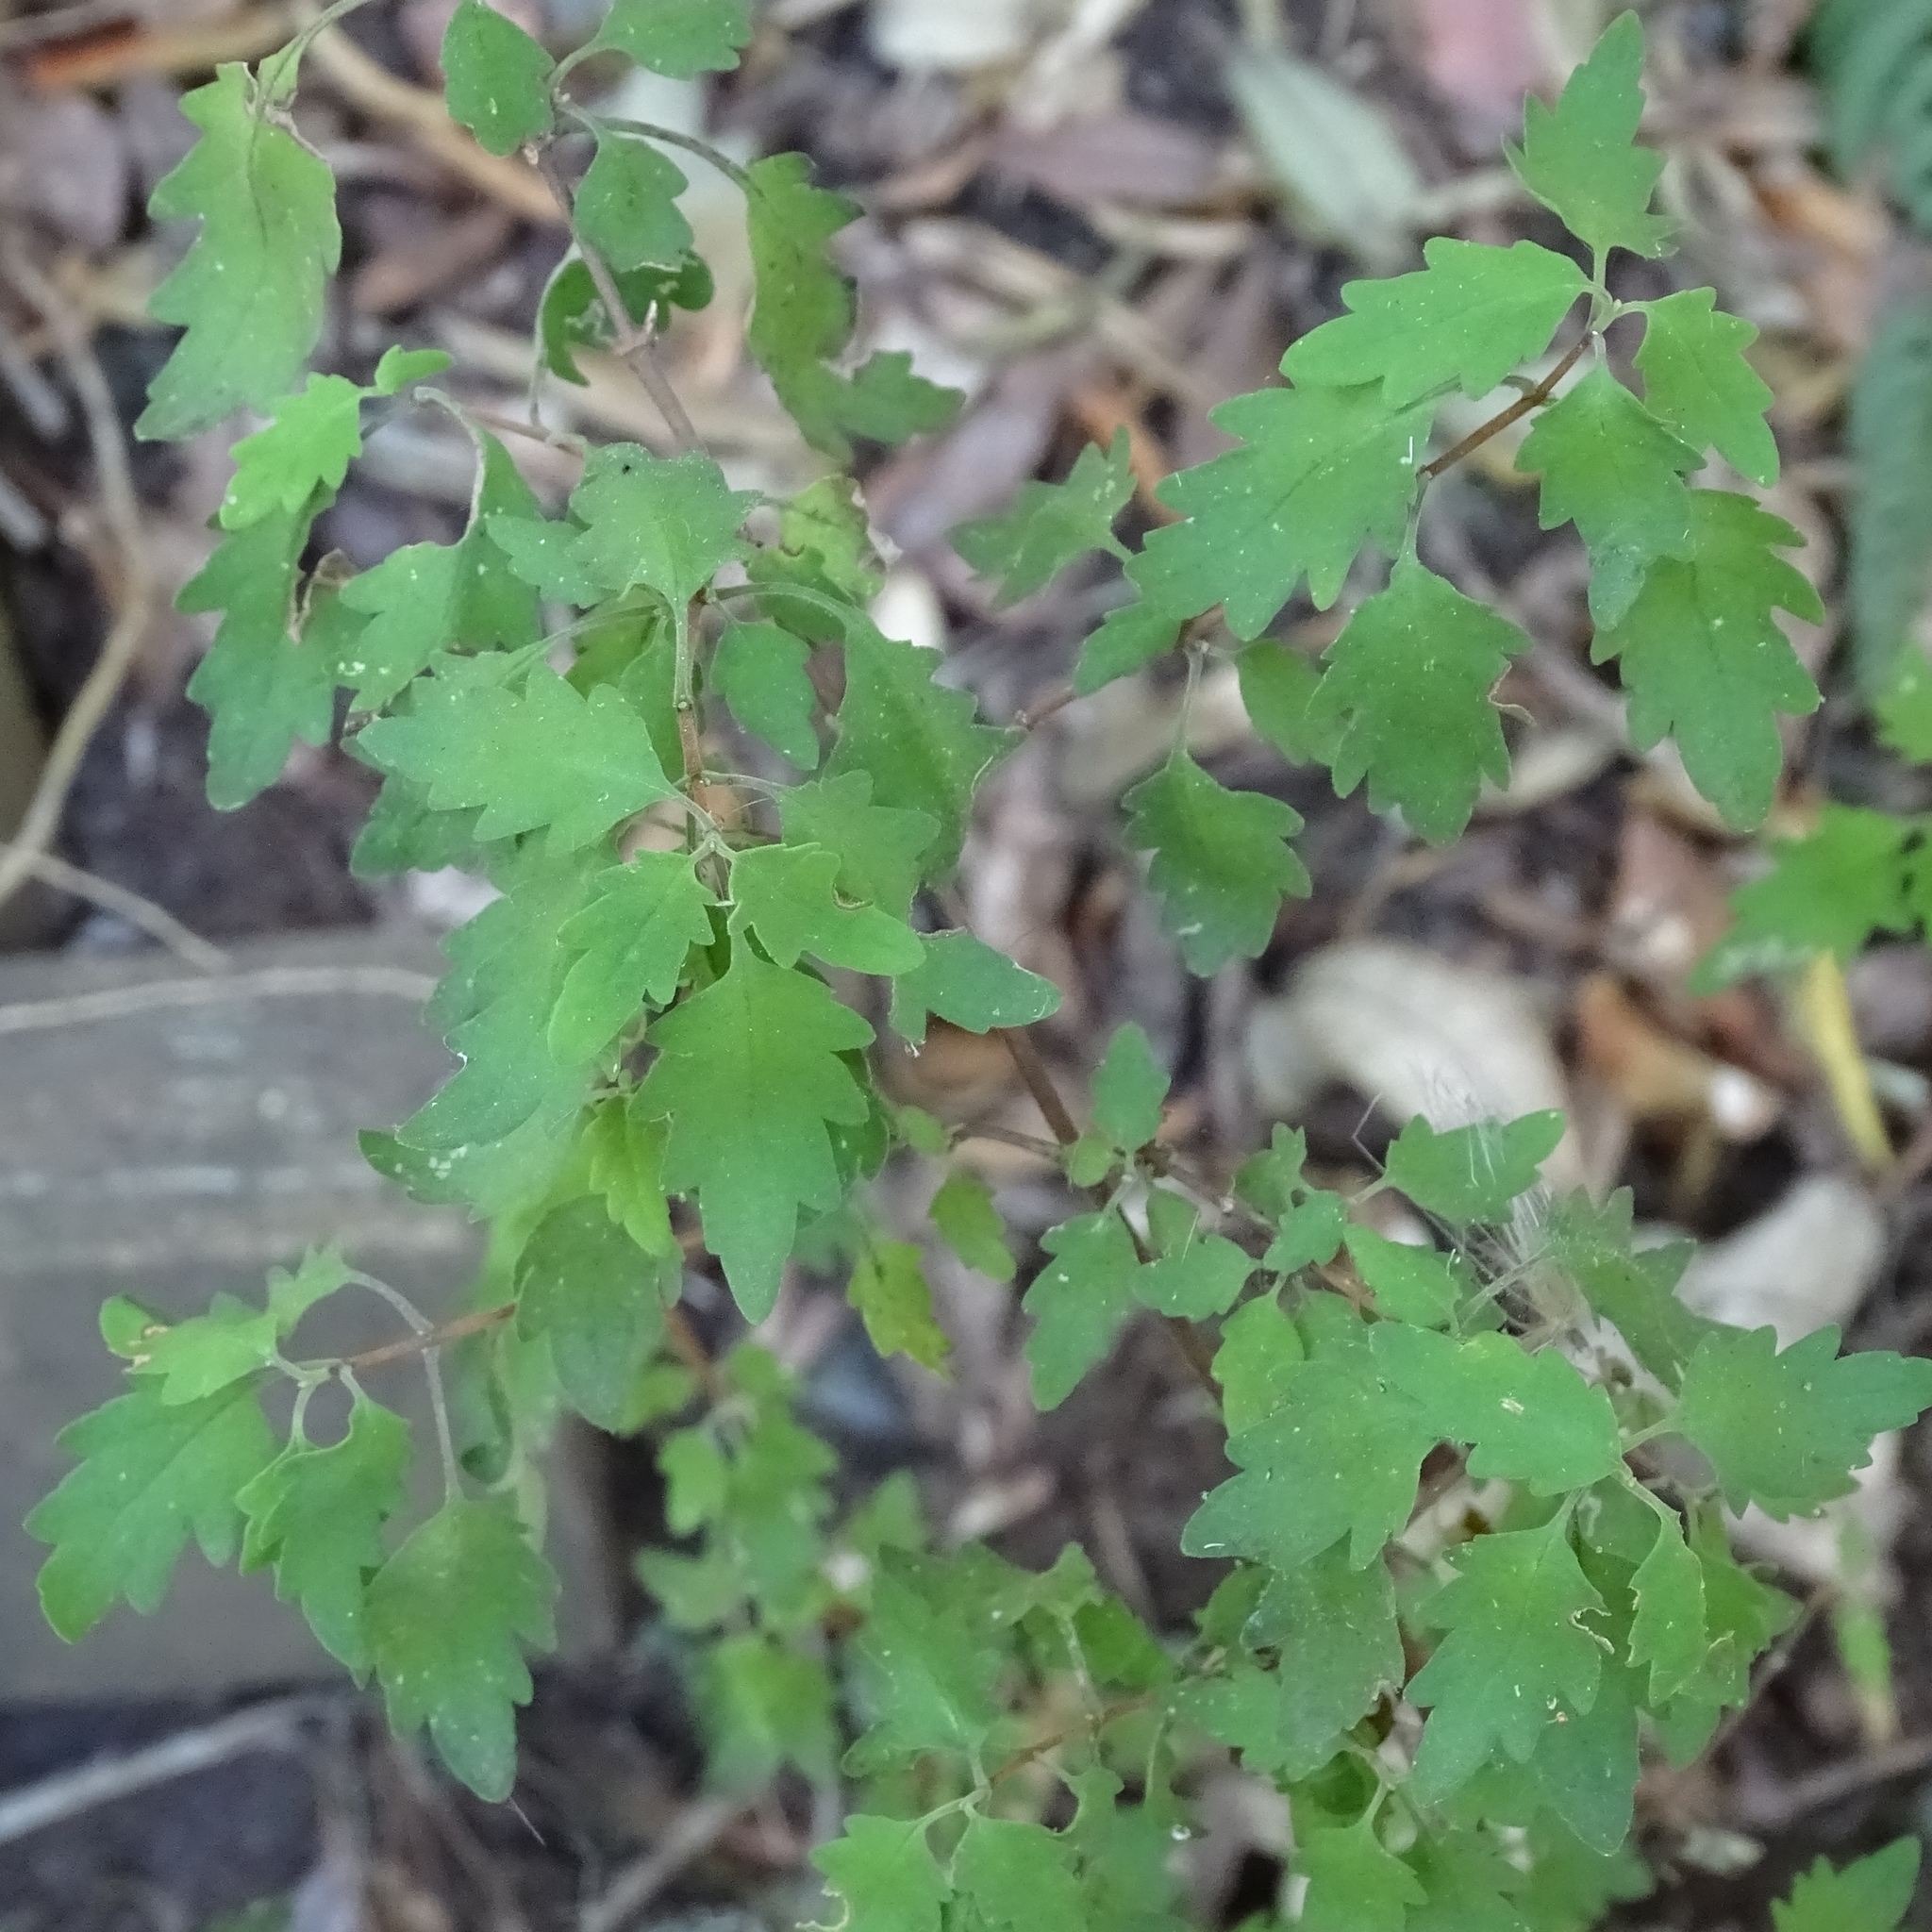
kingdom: Plantae
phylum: Tracheophyta
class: Magnoliopsida
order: Lamiales
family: Calceolariaceae
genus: Jovellana
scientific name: Jovellana violacea
